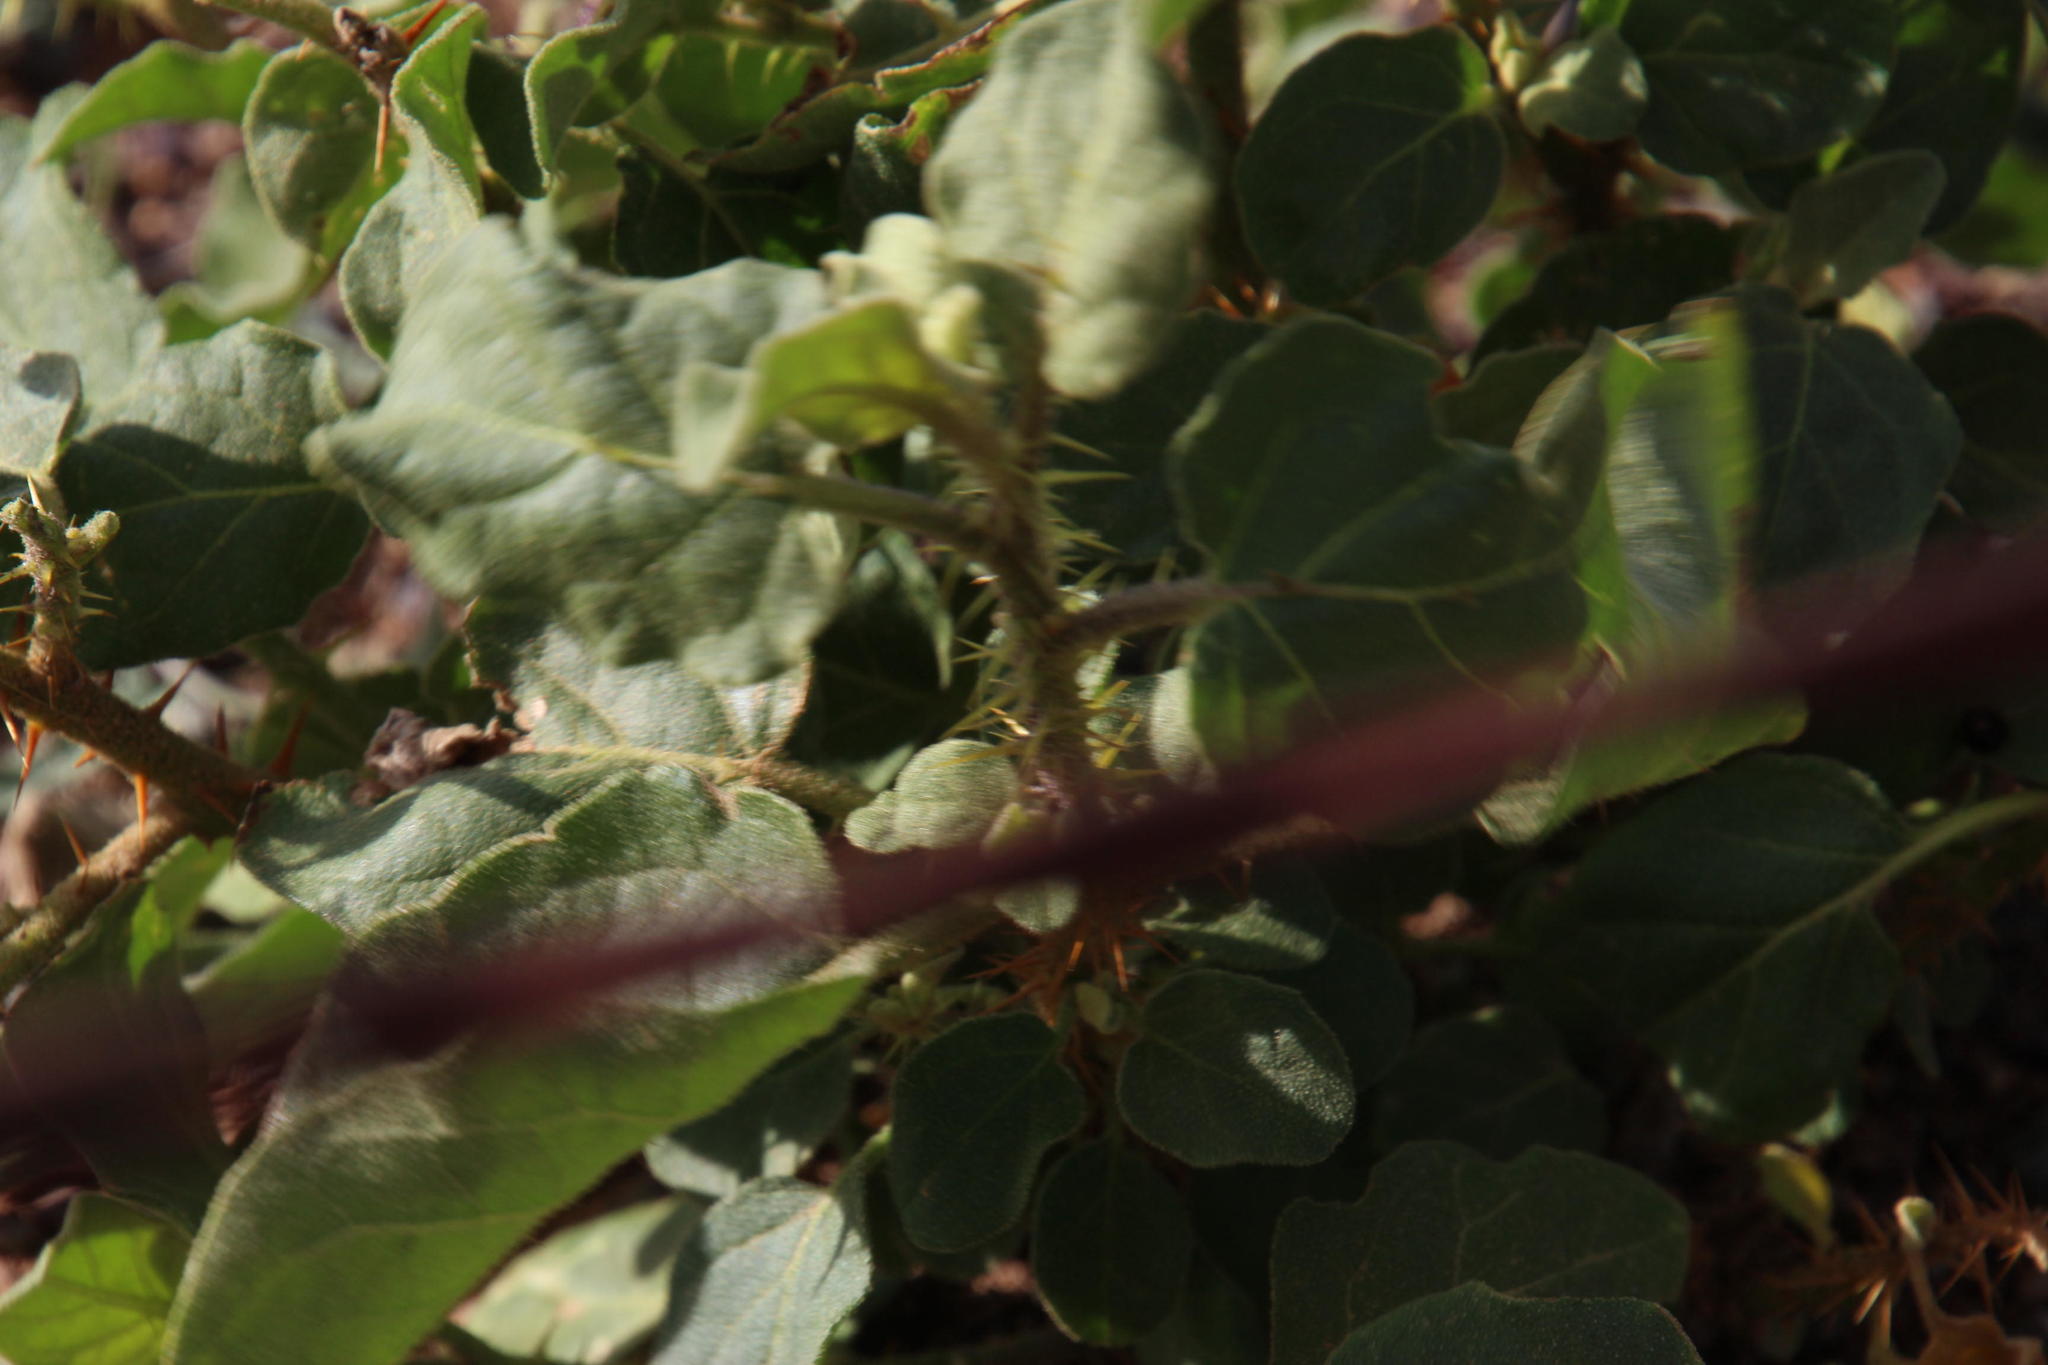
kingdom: Plantae
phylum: Tracheophyta
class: Magnoliopsida
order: Caryophyllales
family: Polygonaceae
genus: Rumex
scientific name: Rumex hypogaeus
